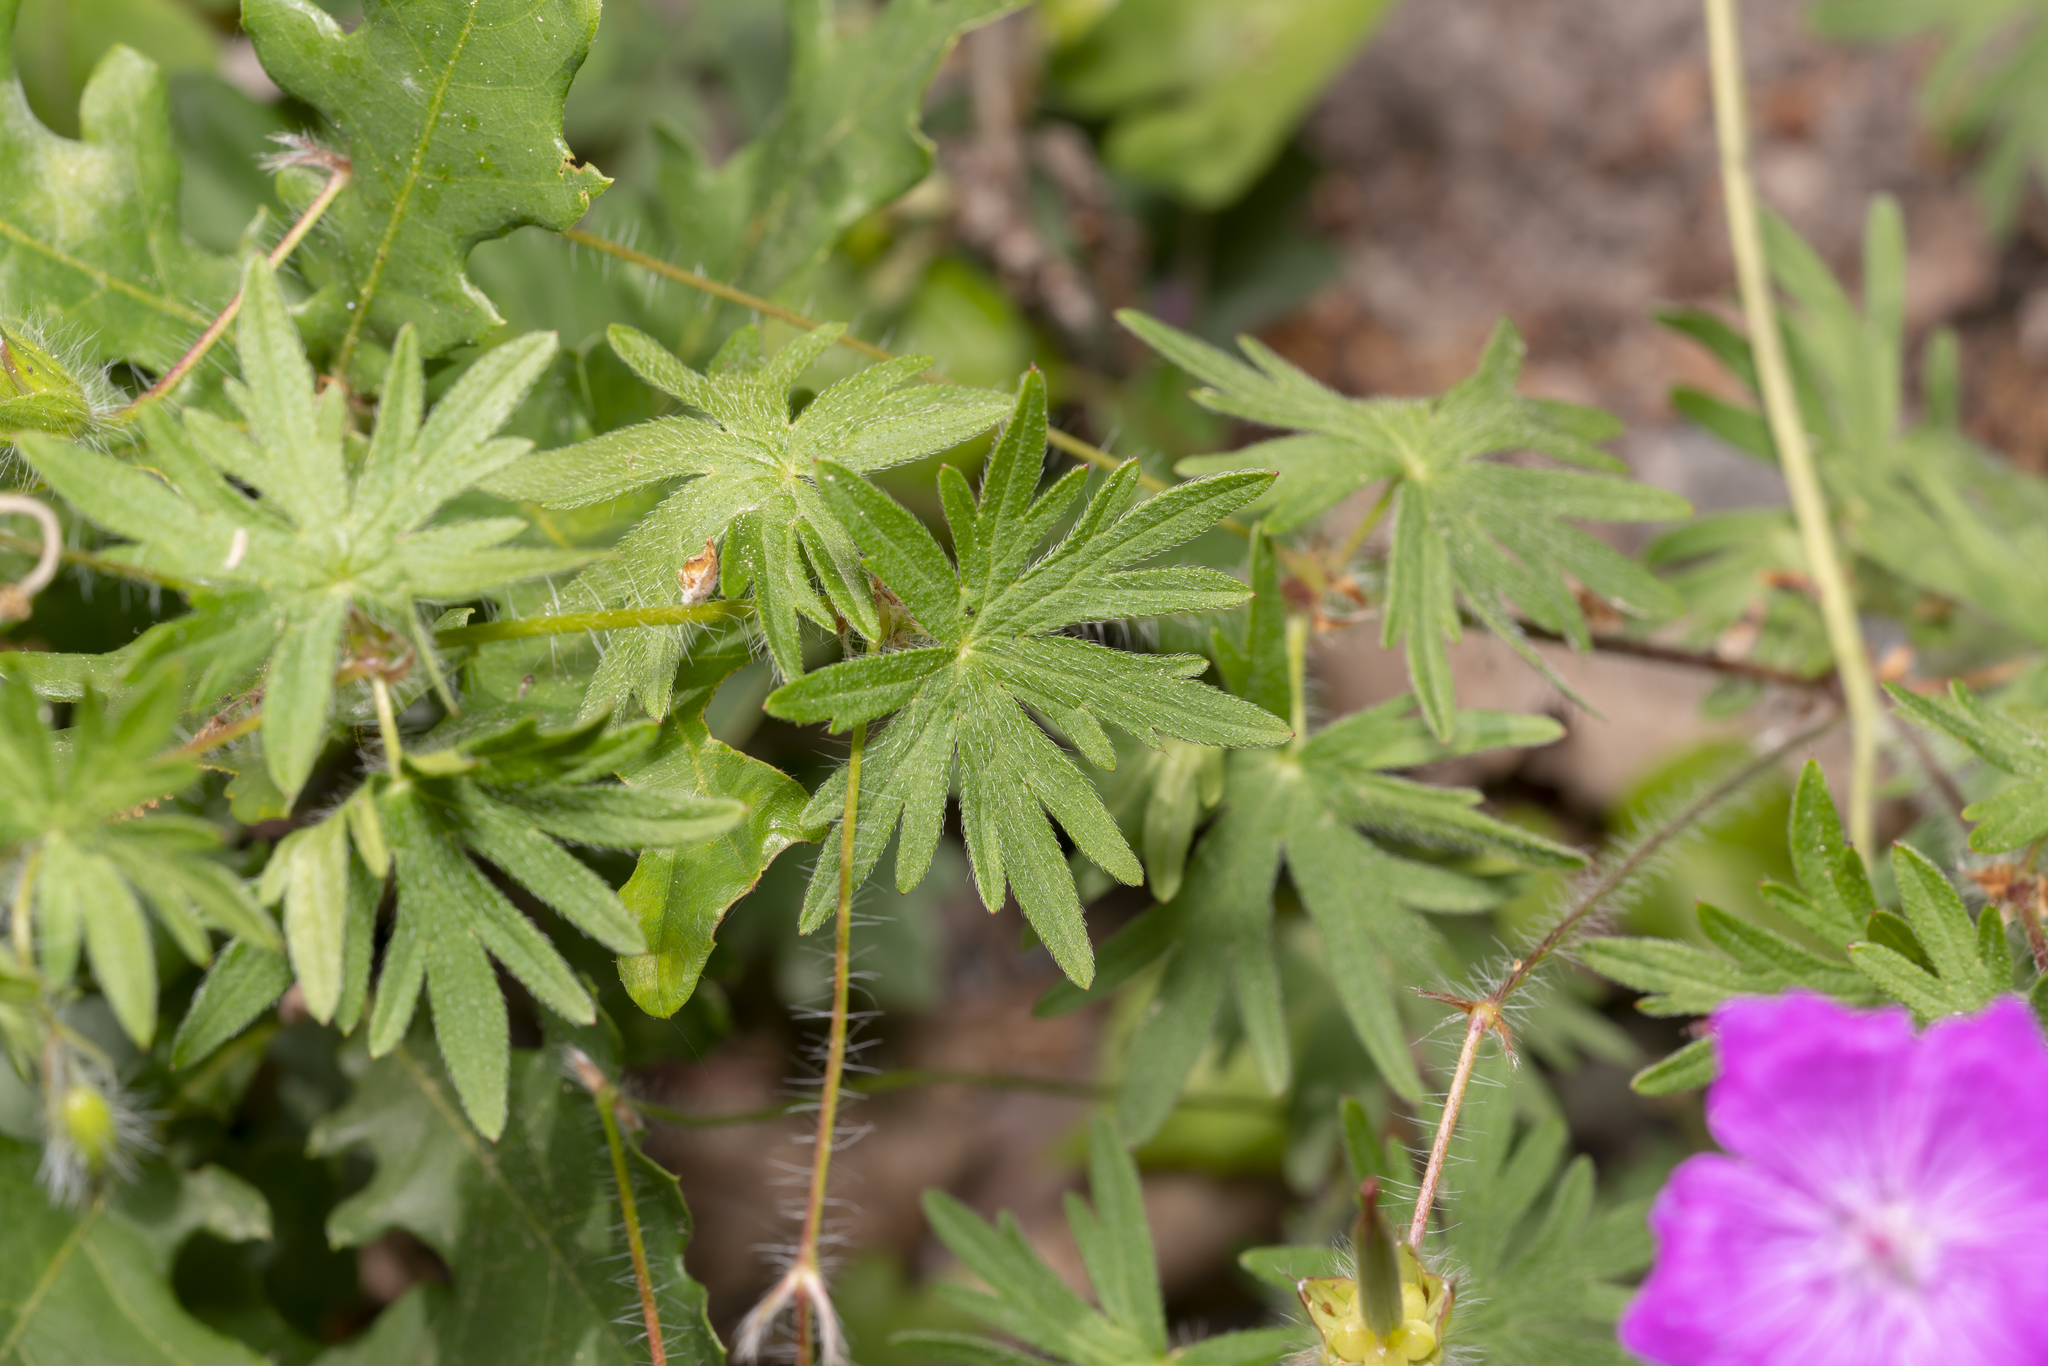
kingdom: Plantae
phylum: Tracheophyta
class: Magnoliopsida
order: Geraniales
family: Geraniaceae
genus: Geranium
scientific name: Geranium sanguineum
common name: Bloody crane's-bill
